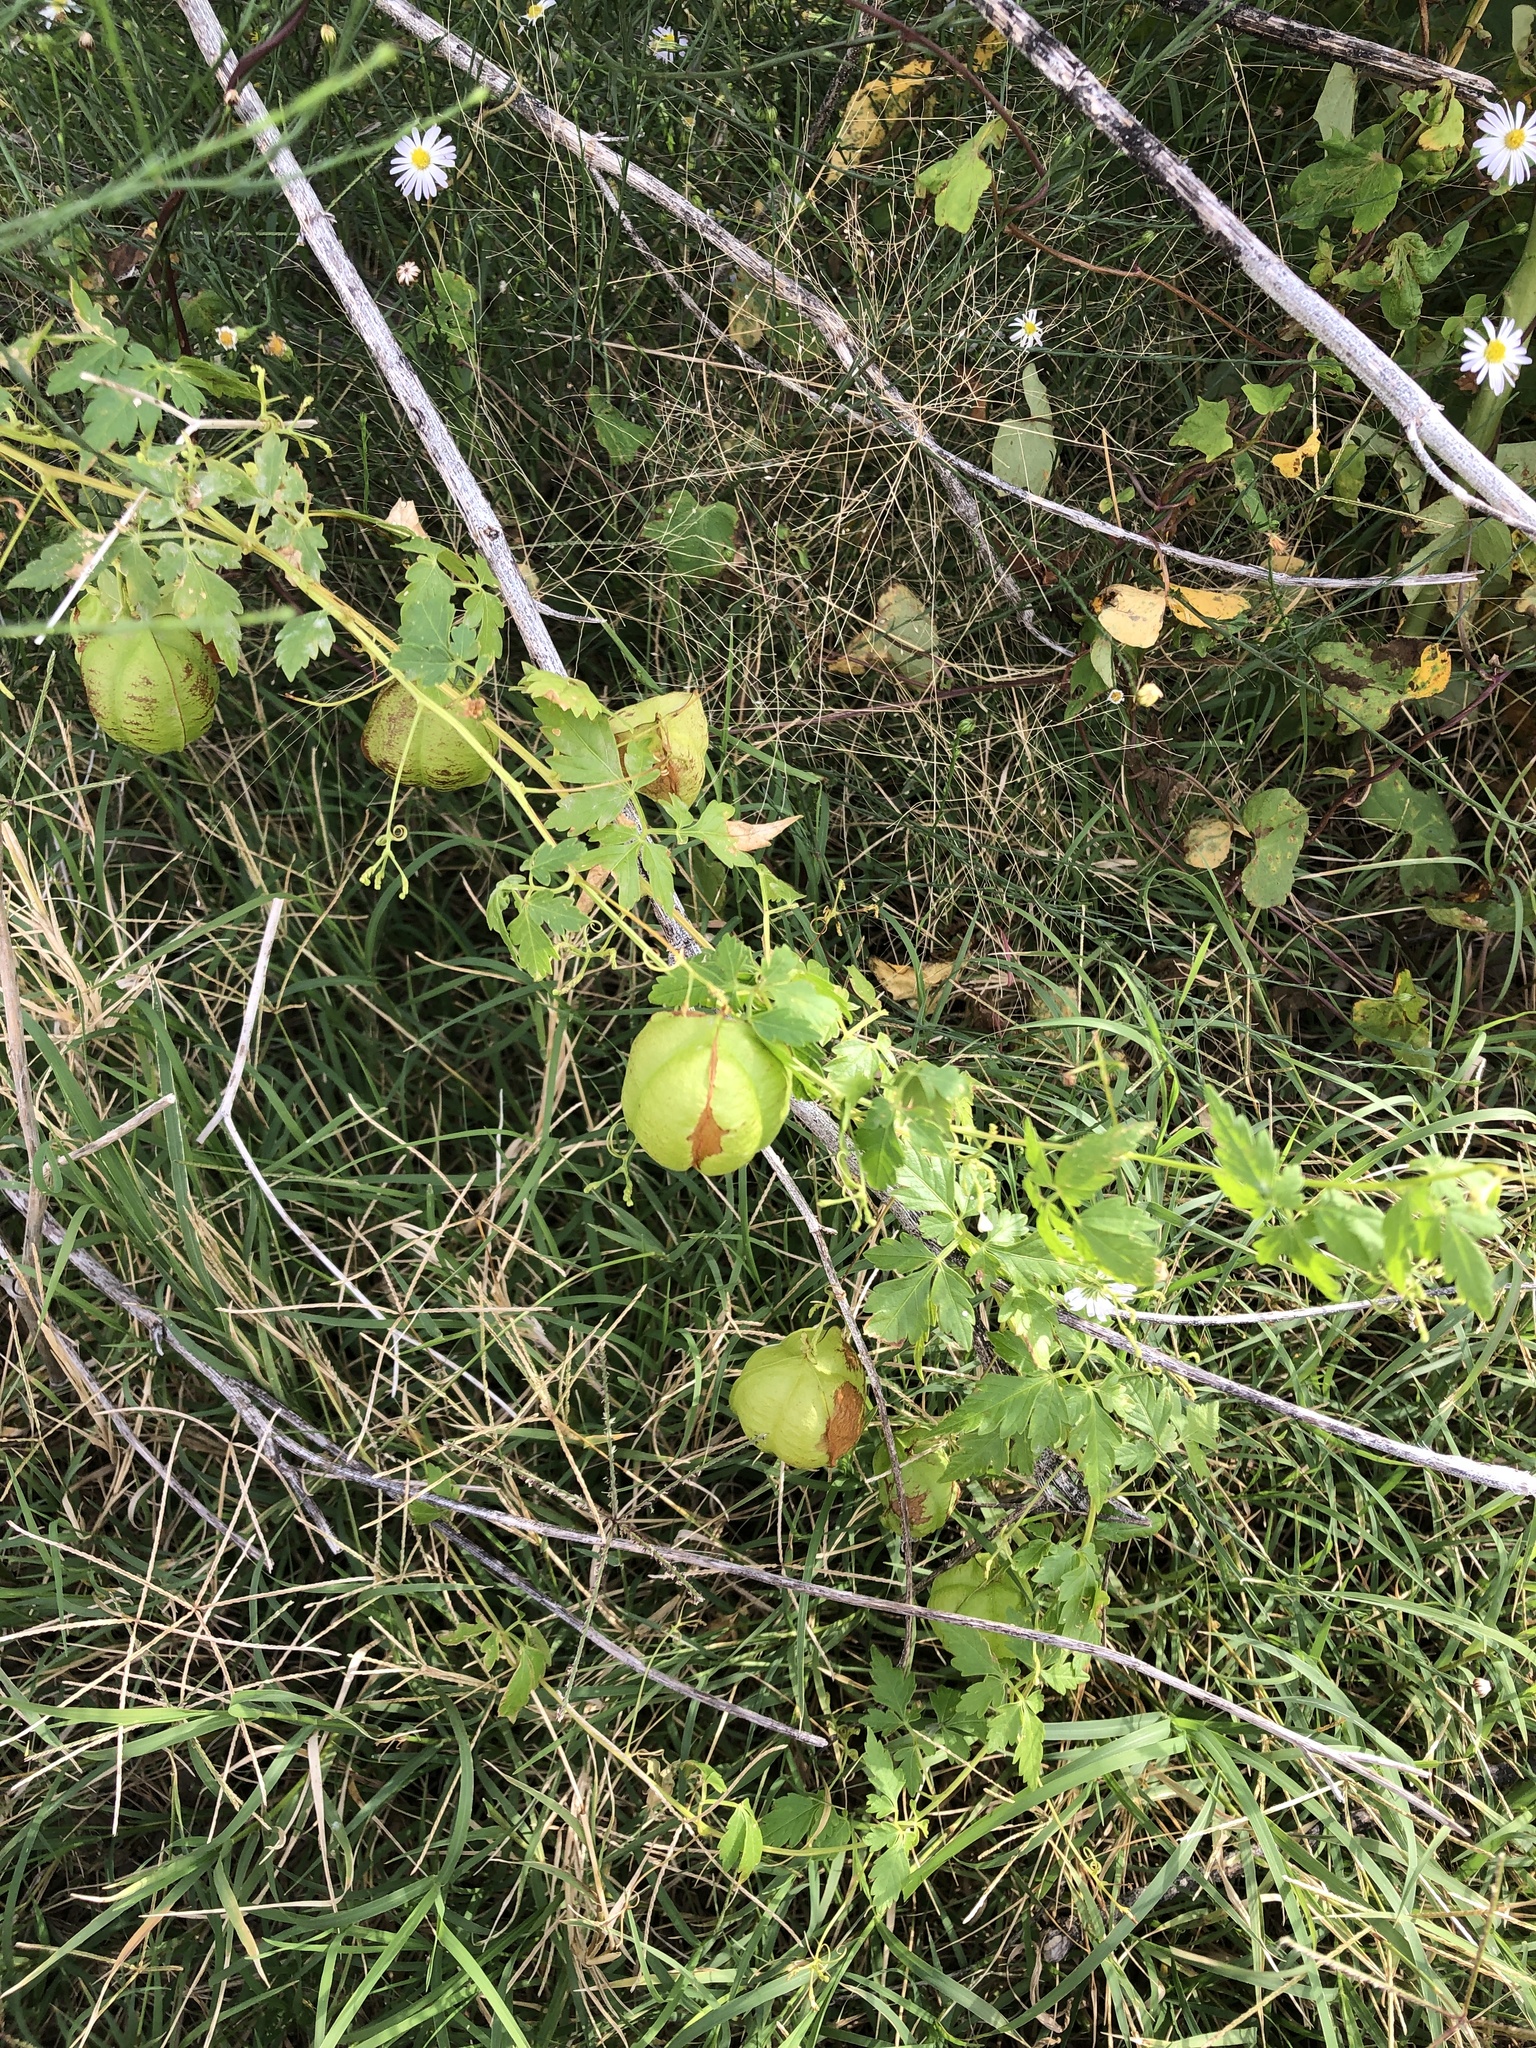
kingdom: Plantae
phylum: Tracheophyta
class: Magnoliopsida
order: Sapindales
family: Sapindaceae
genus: Cardiospermum
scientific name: Cardiospermum halicacabum
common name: Balloon vine
